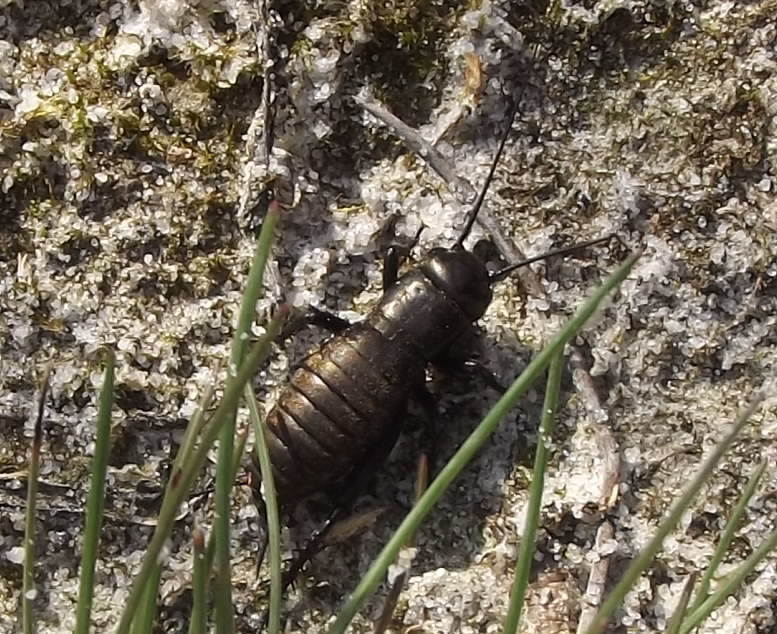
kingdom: Animalia
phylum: Arthropoda
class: Insecta
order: Orthoptera
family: Gryllidae
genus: Gryllus
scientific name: Gryllus campestris
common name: Field cricket
